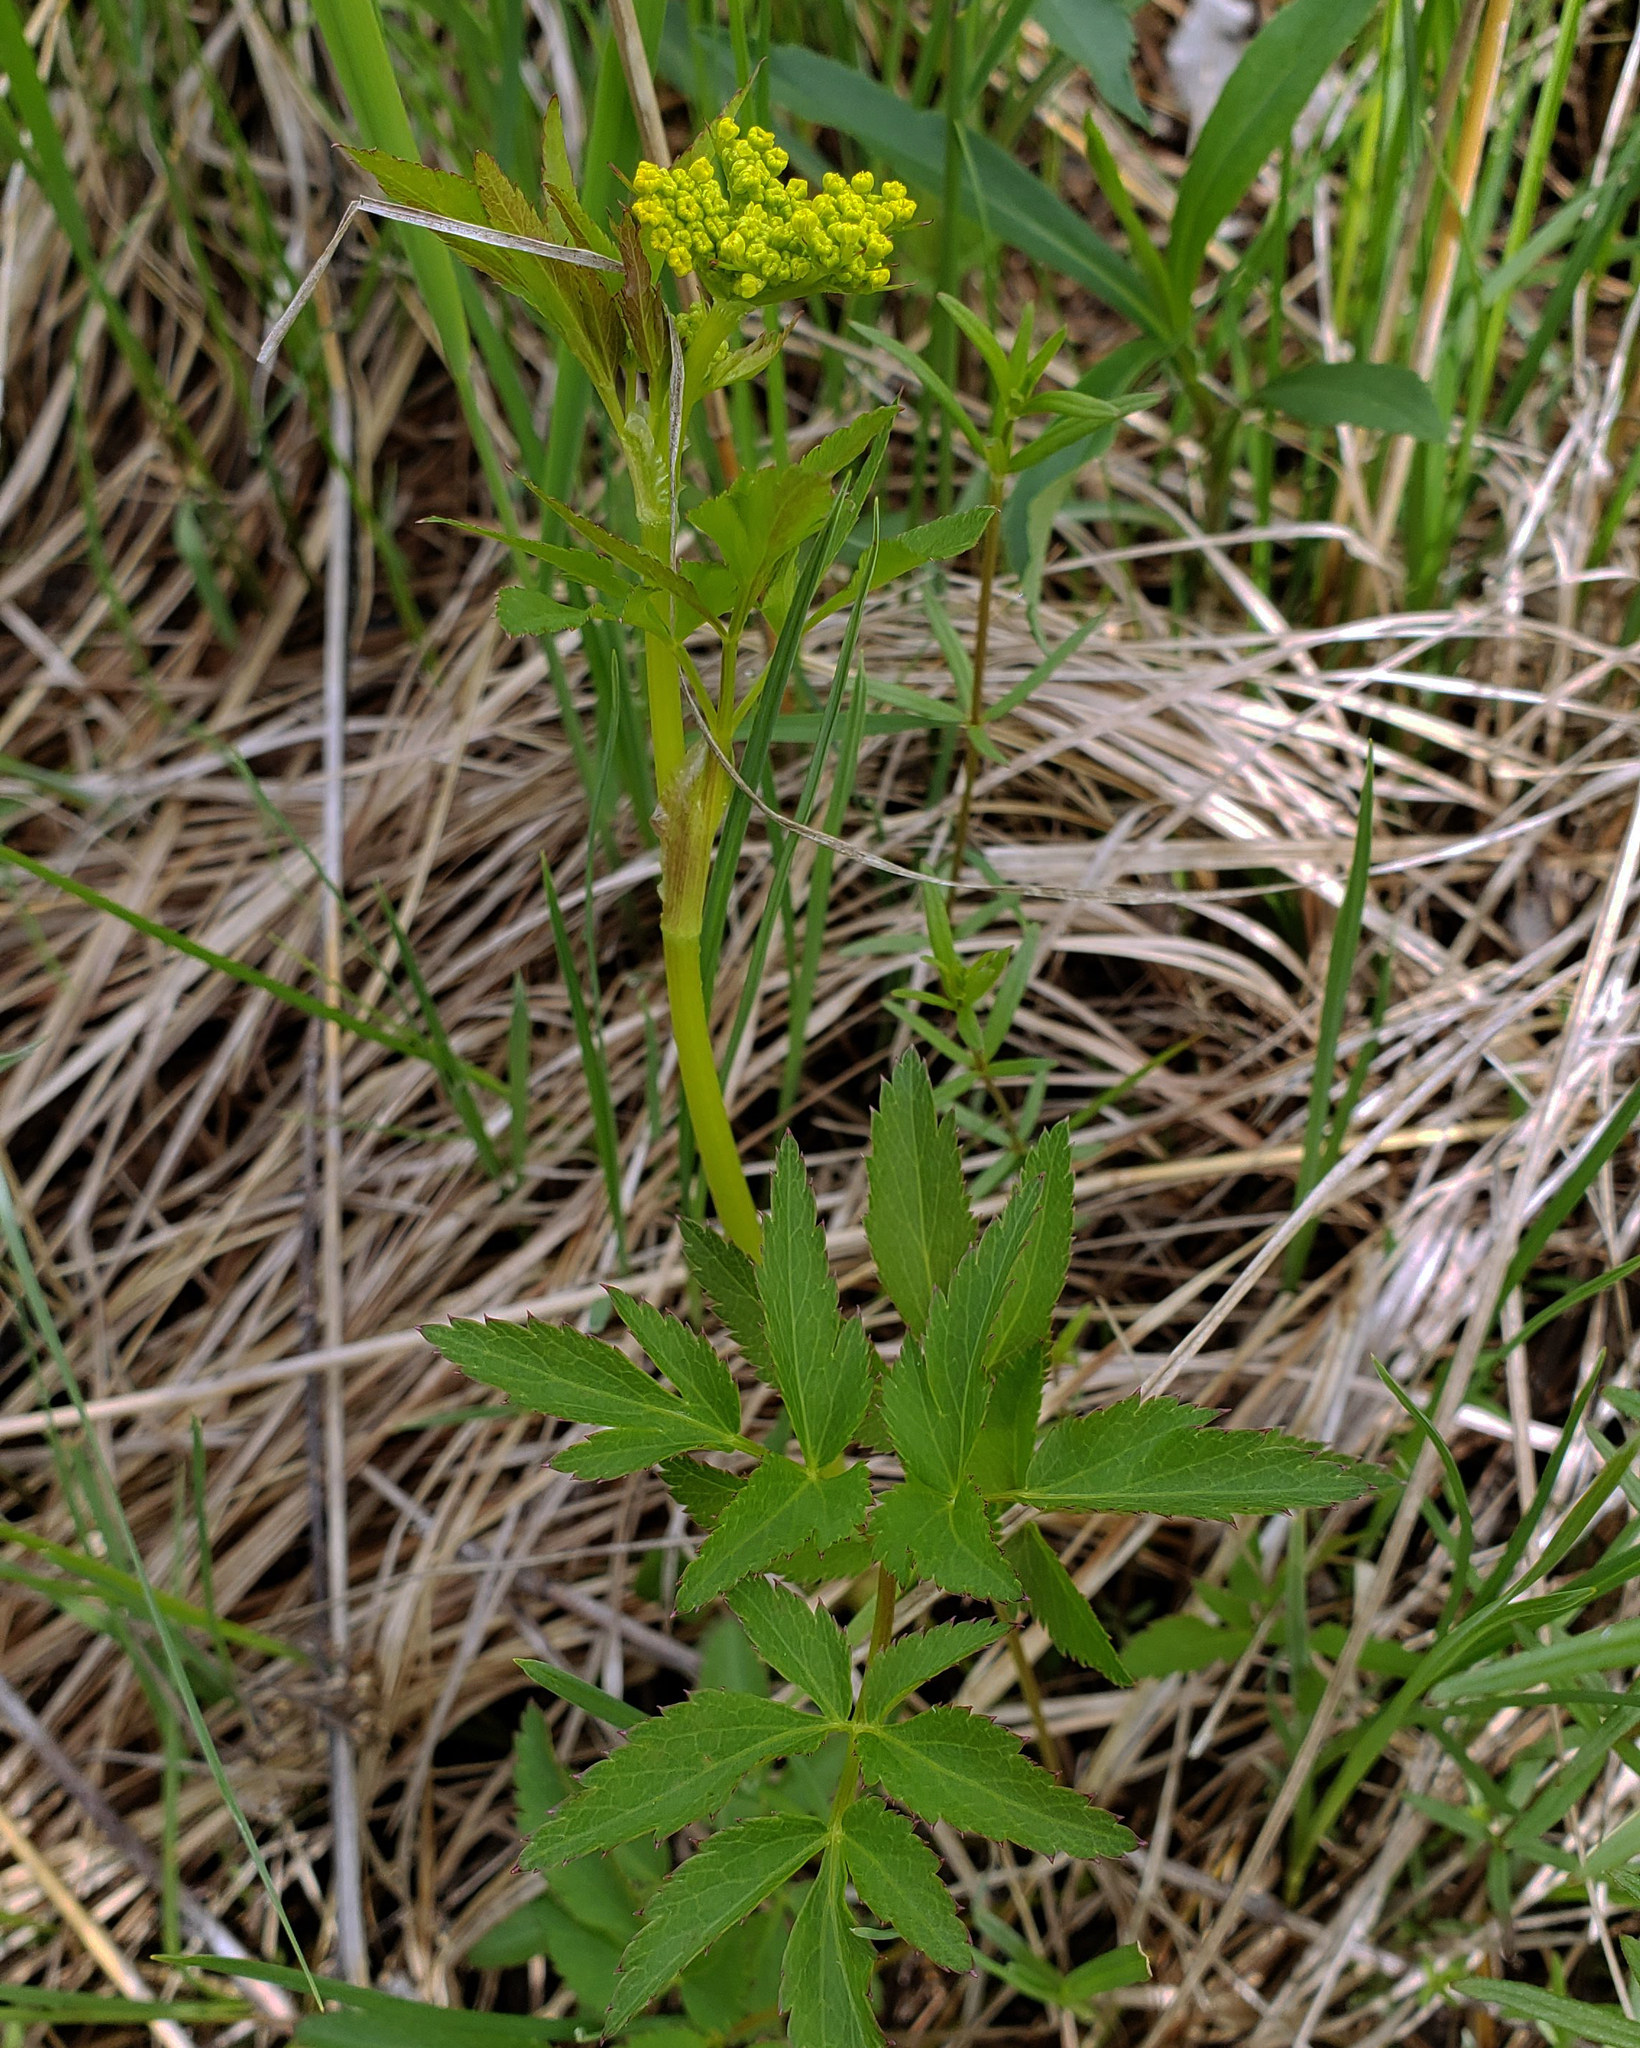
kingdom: Plantae
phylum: Tracheophyta
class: Magnoliopsida
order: Apiales
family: Apiaceae
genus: Zizia
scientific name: Zizia aurea
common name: Golden alexanders
